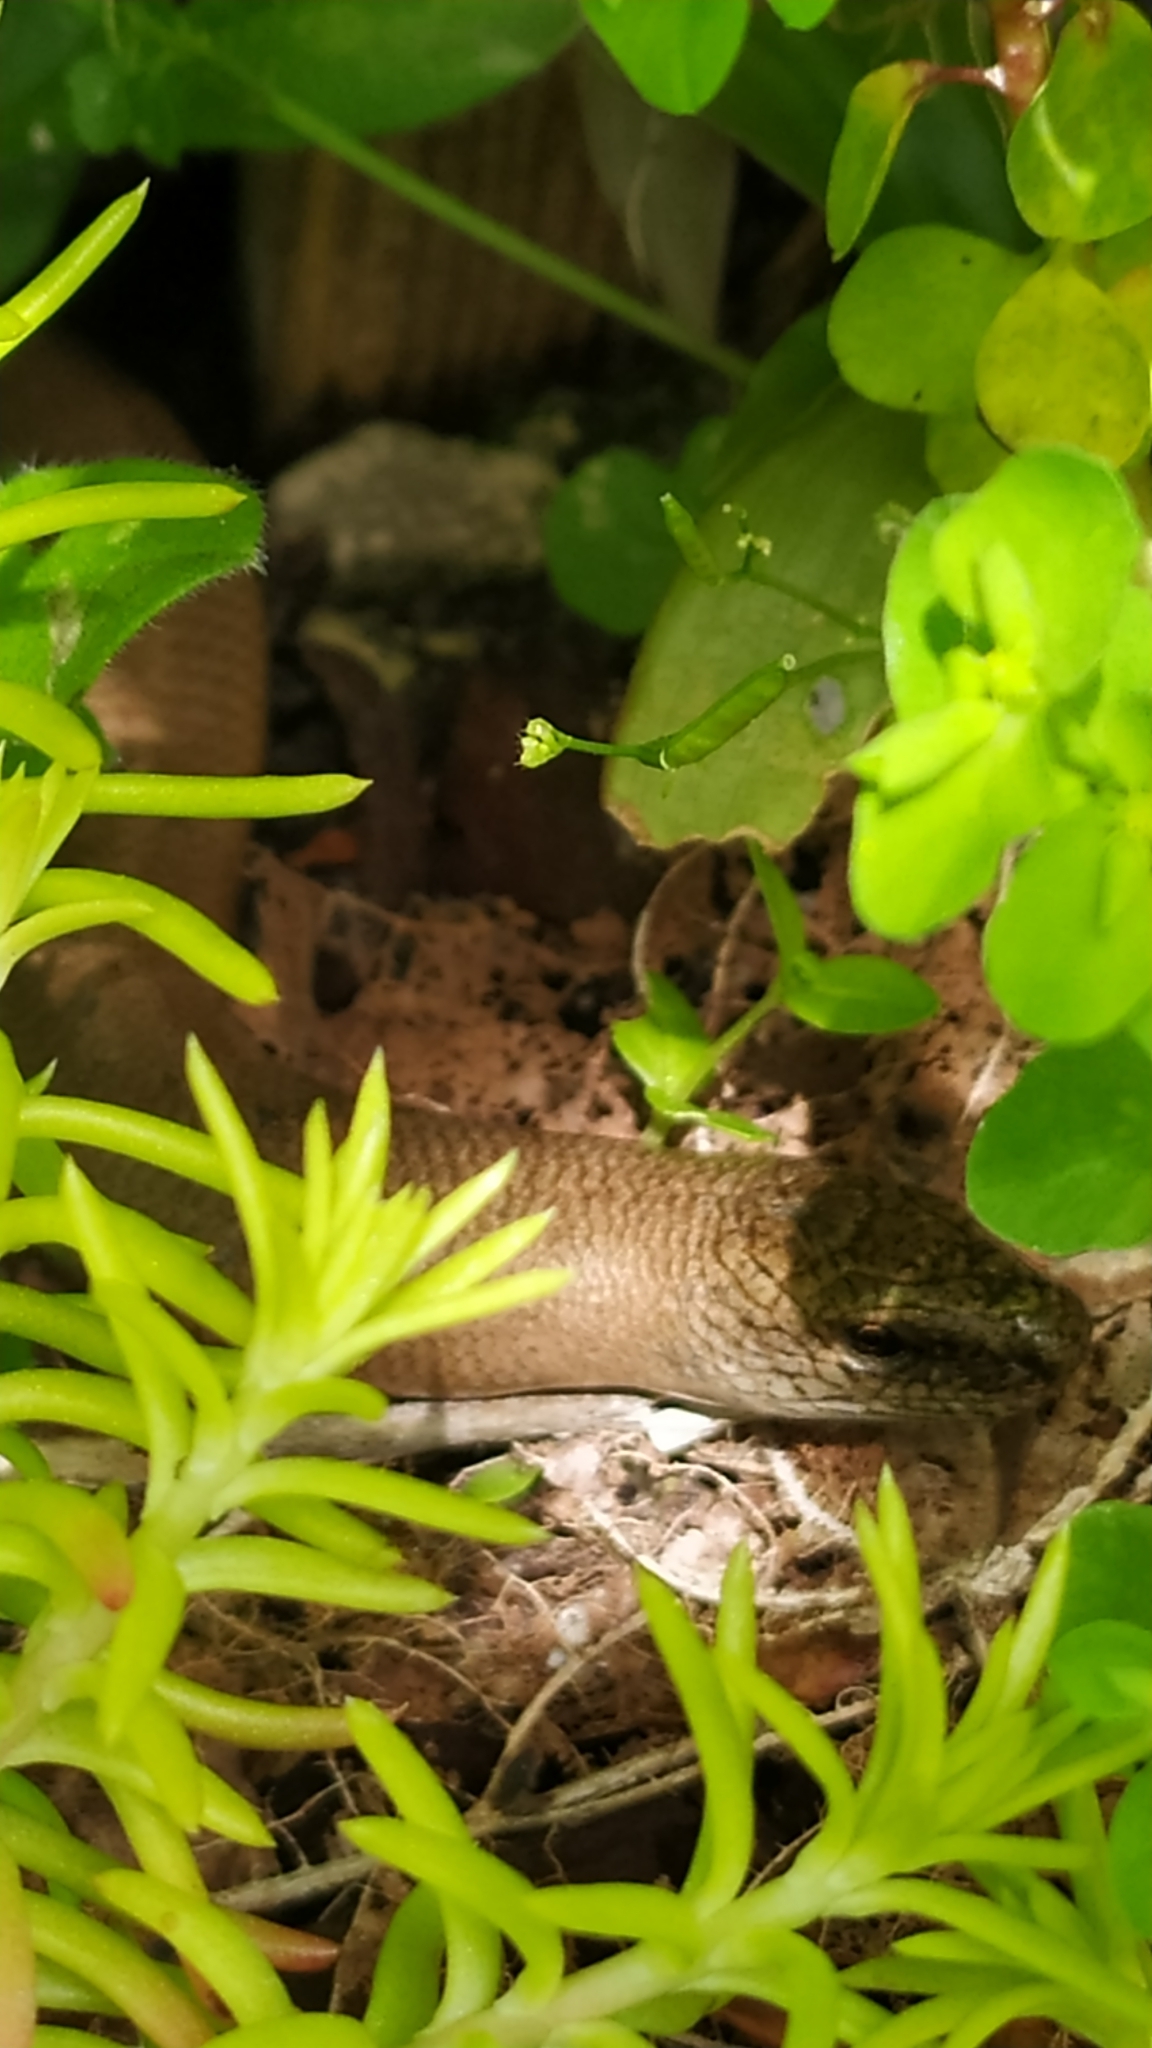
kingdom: Animalia
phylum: Chordata
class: Squamata
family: Anguidae
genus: Anguis
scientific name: Anguis fragilis
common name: Slow worm
